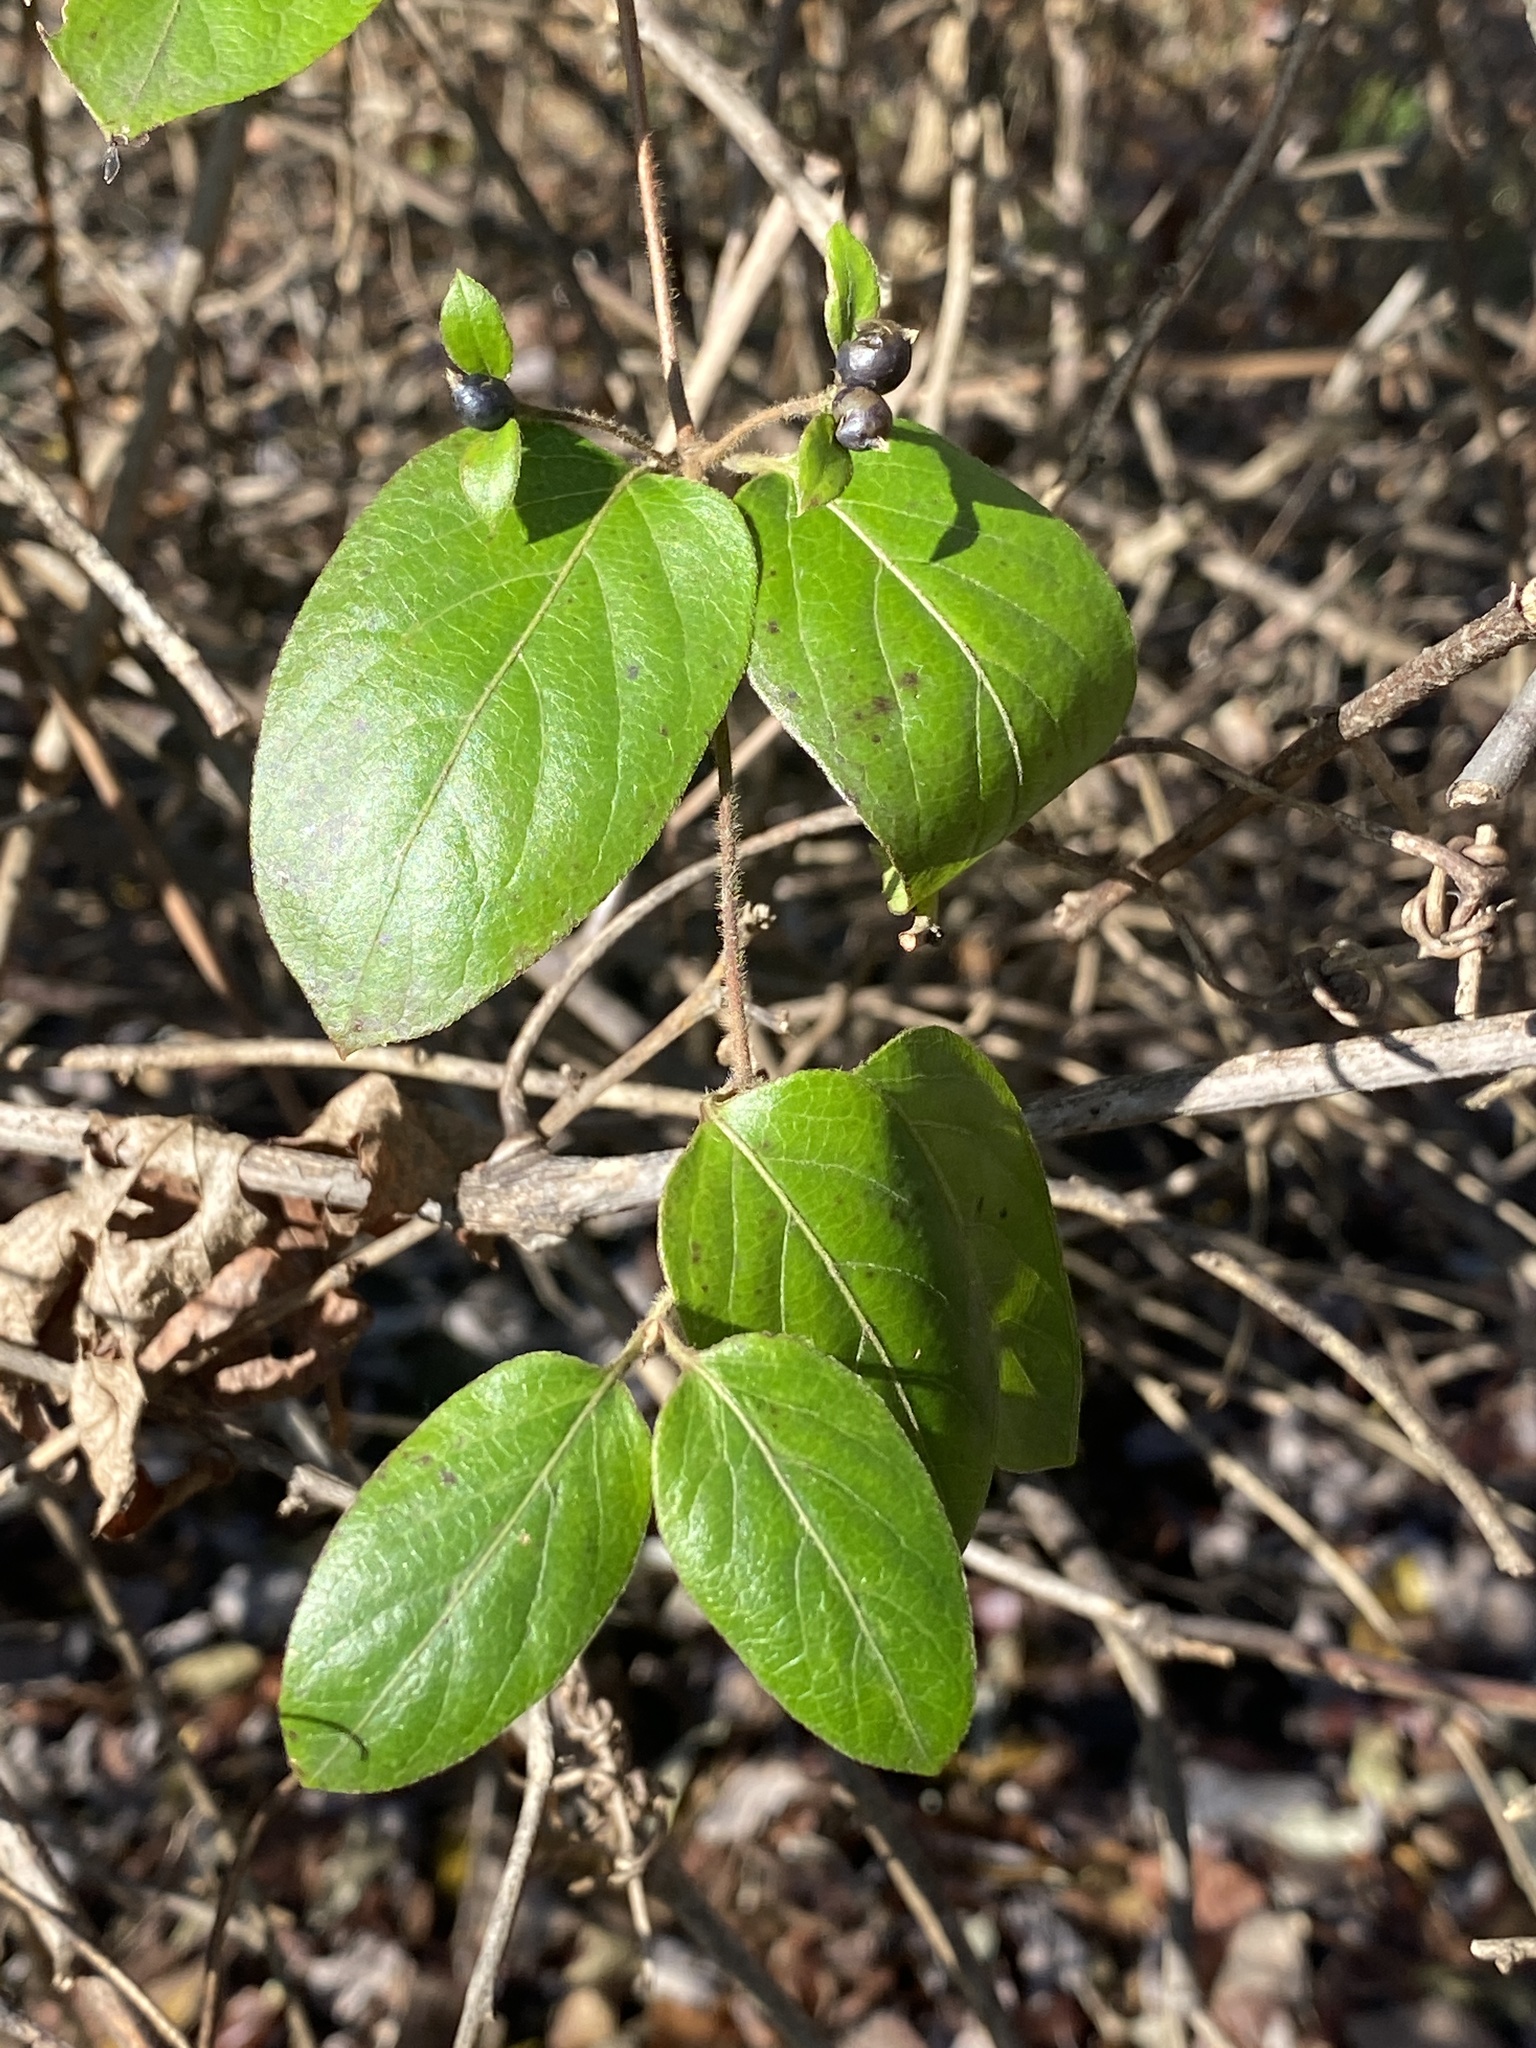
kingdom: Plantae
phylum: Tracheophyta
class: Magnoliopsida
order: Dipsacales
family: Caprifoliaceae
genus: Lonicera
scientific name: Lonicera japonica
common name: Japanese honeysuckle
